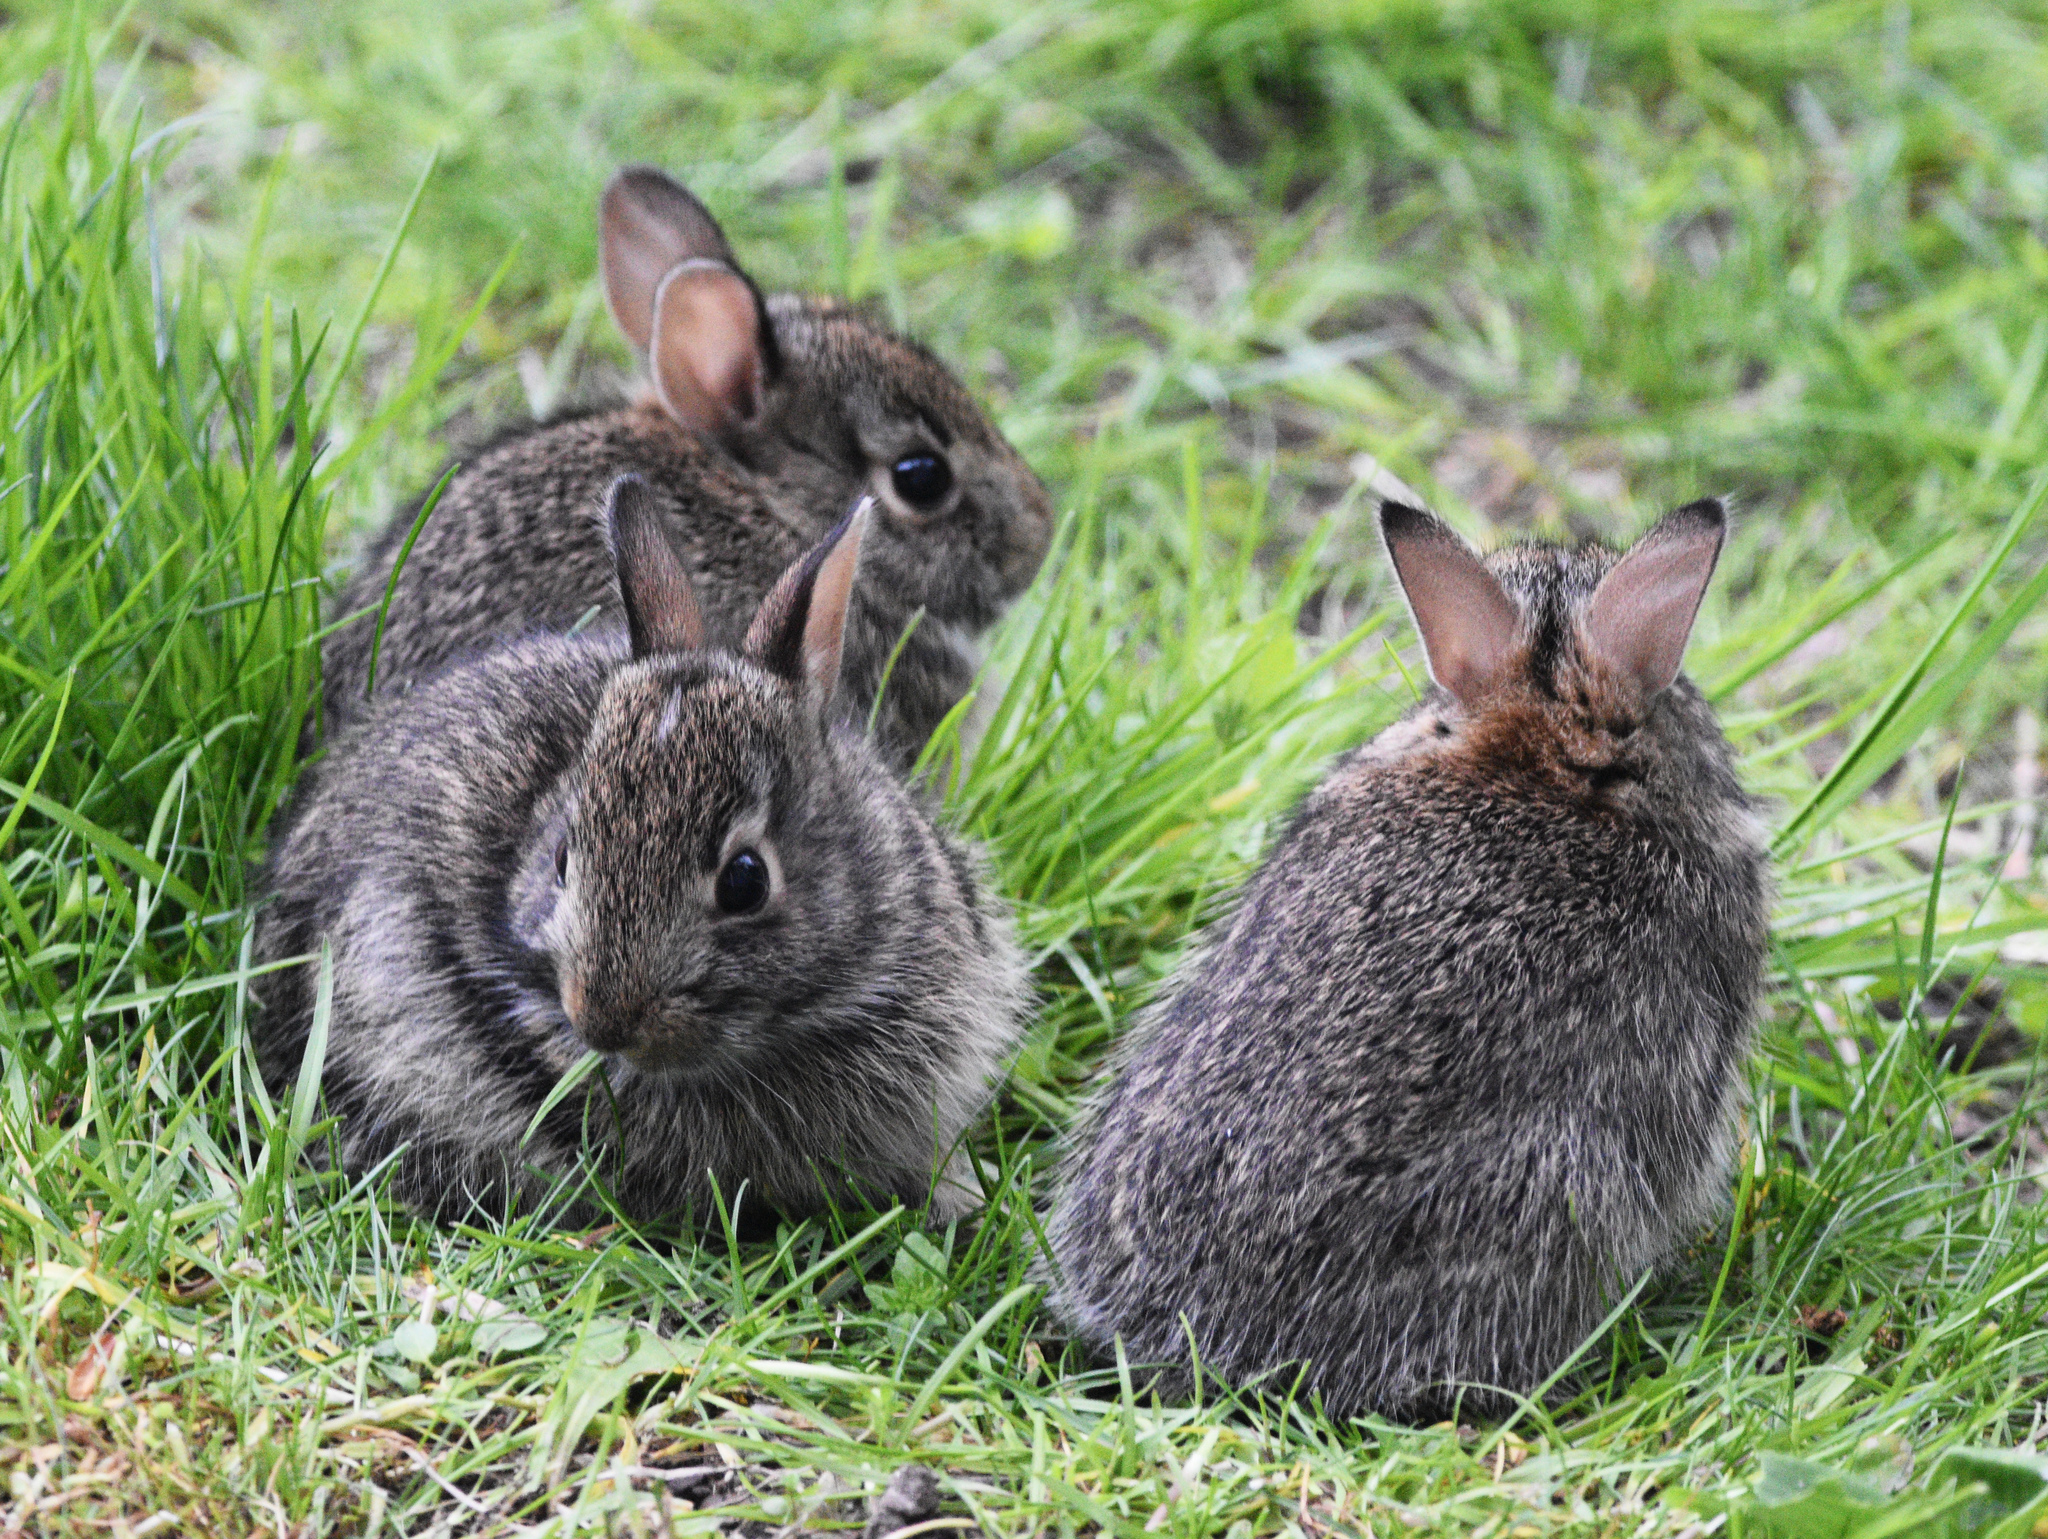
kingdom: Animalia
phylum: Chordata
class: Mammalia
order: Lagomorpha
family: Leporidae
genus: Sylvilagus
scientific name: Sylvilagus floridanus
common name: Eastern cottontail
